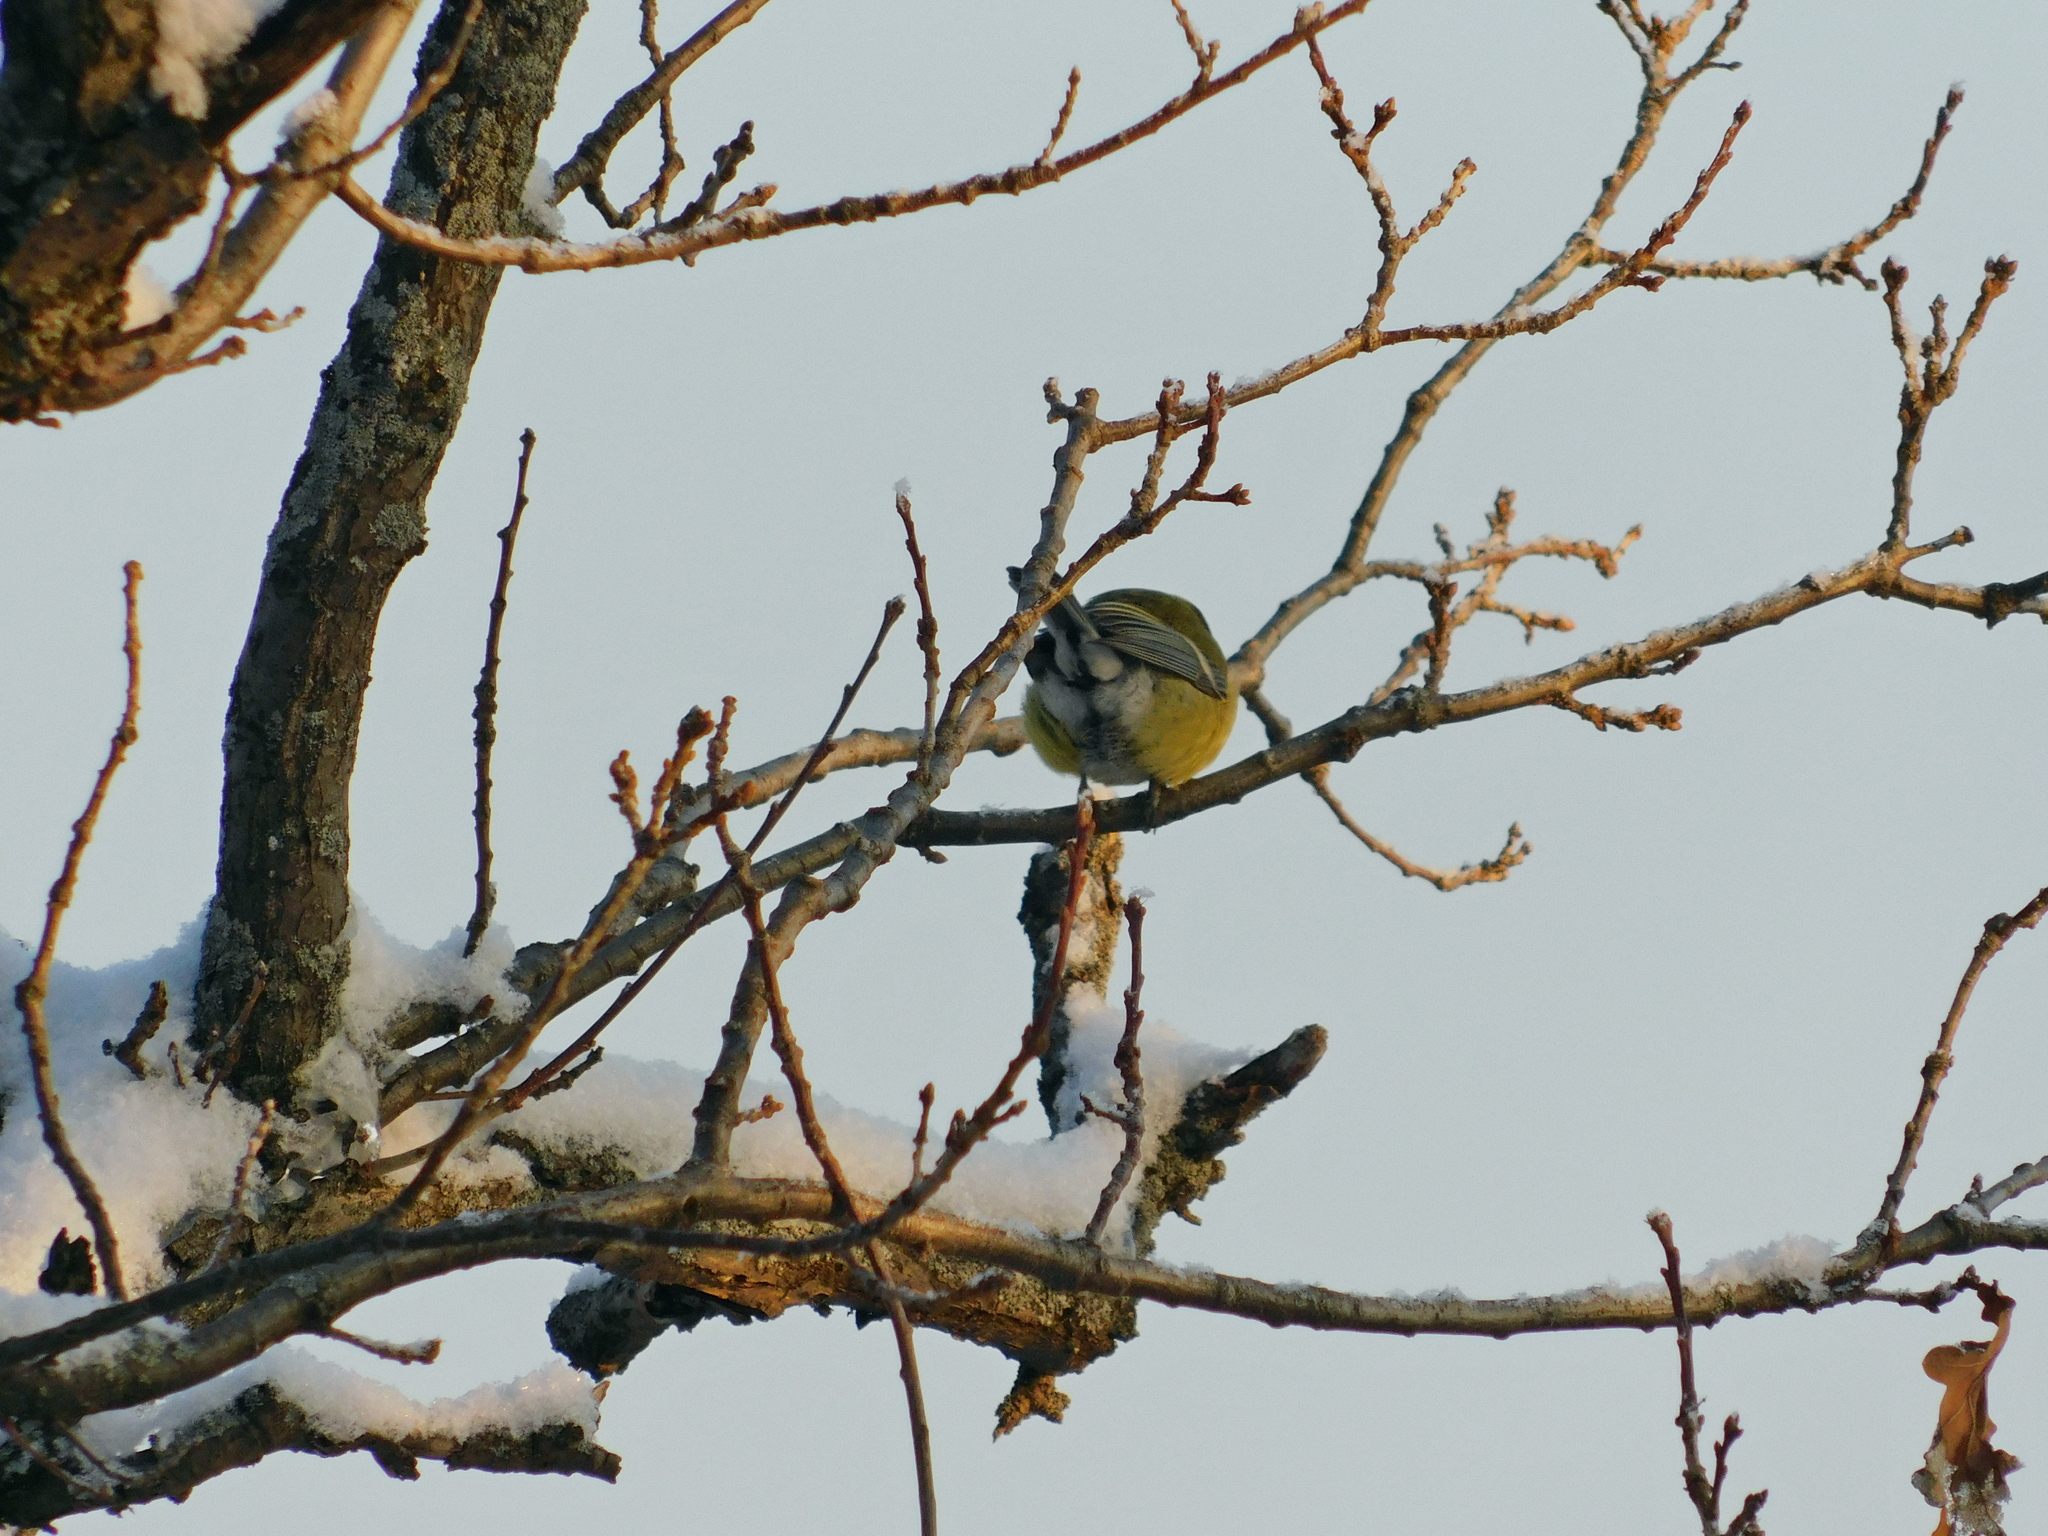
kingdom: Animalia
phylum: Chordata
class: Aves
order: Passeriformes
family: Paridae
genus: Cyanistes
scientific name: Cyanistes caeruleus
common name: Eurasian blue tit
